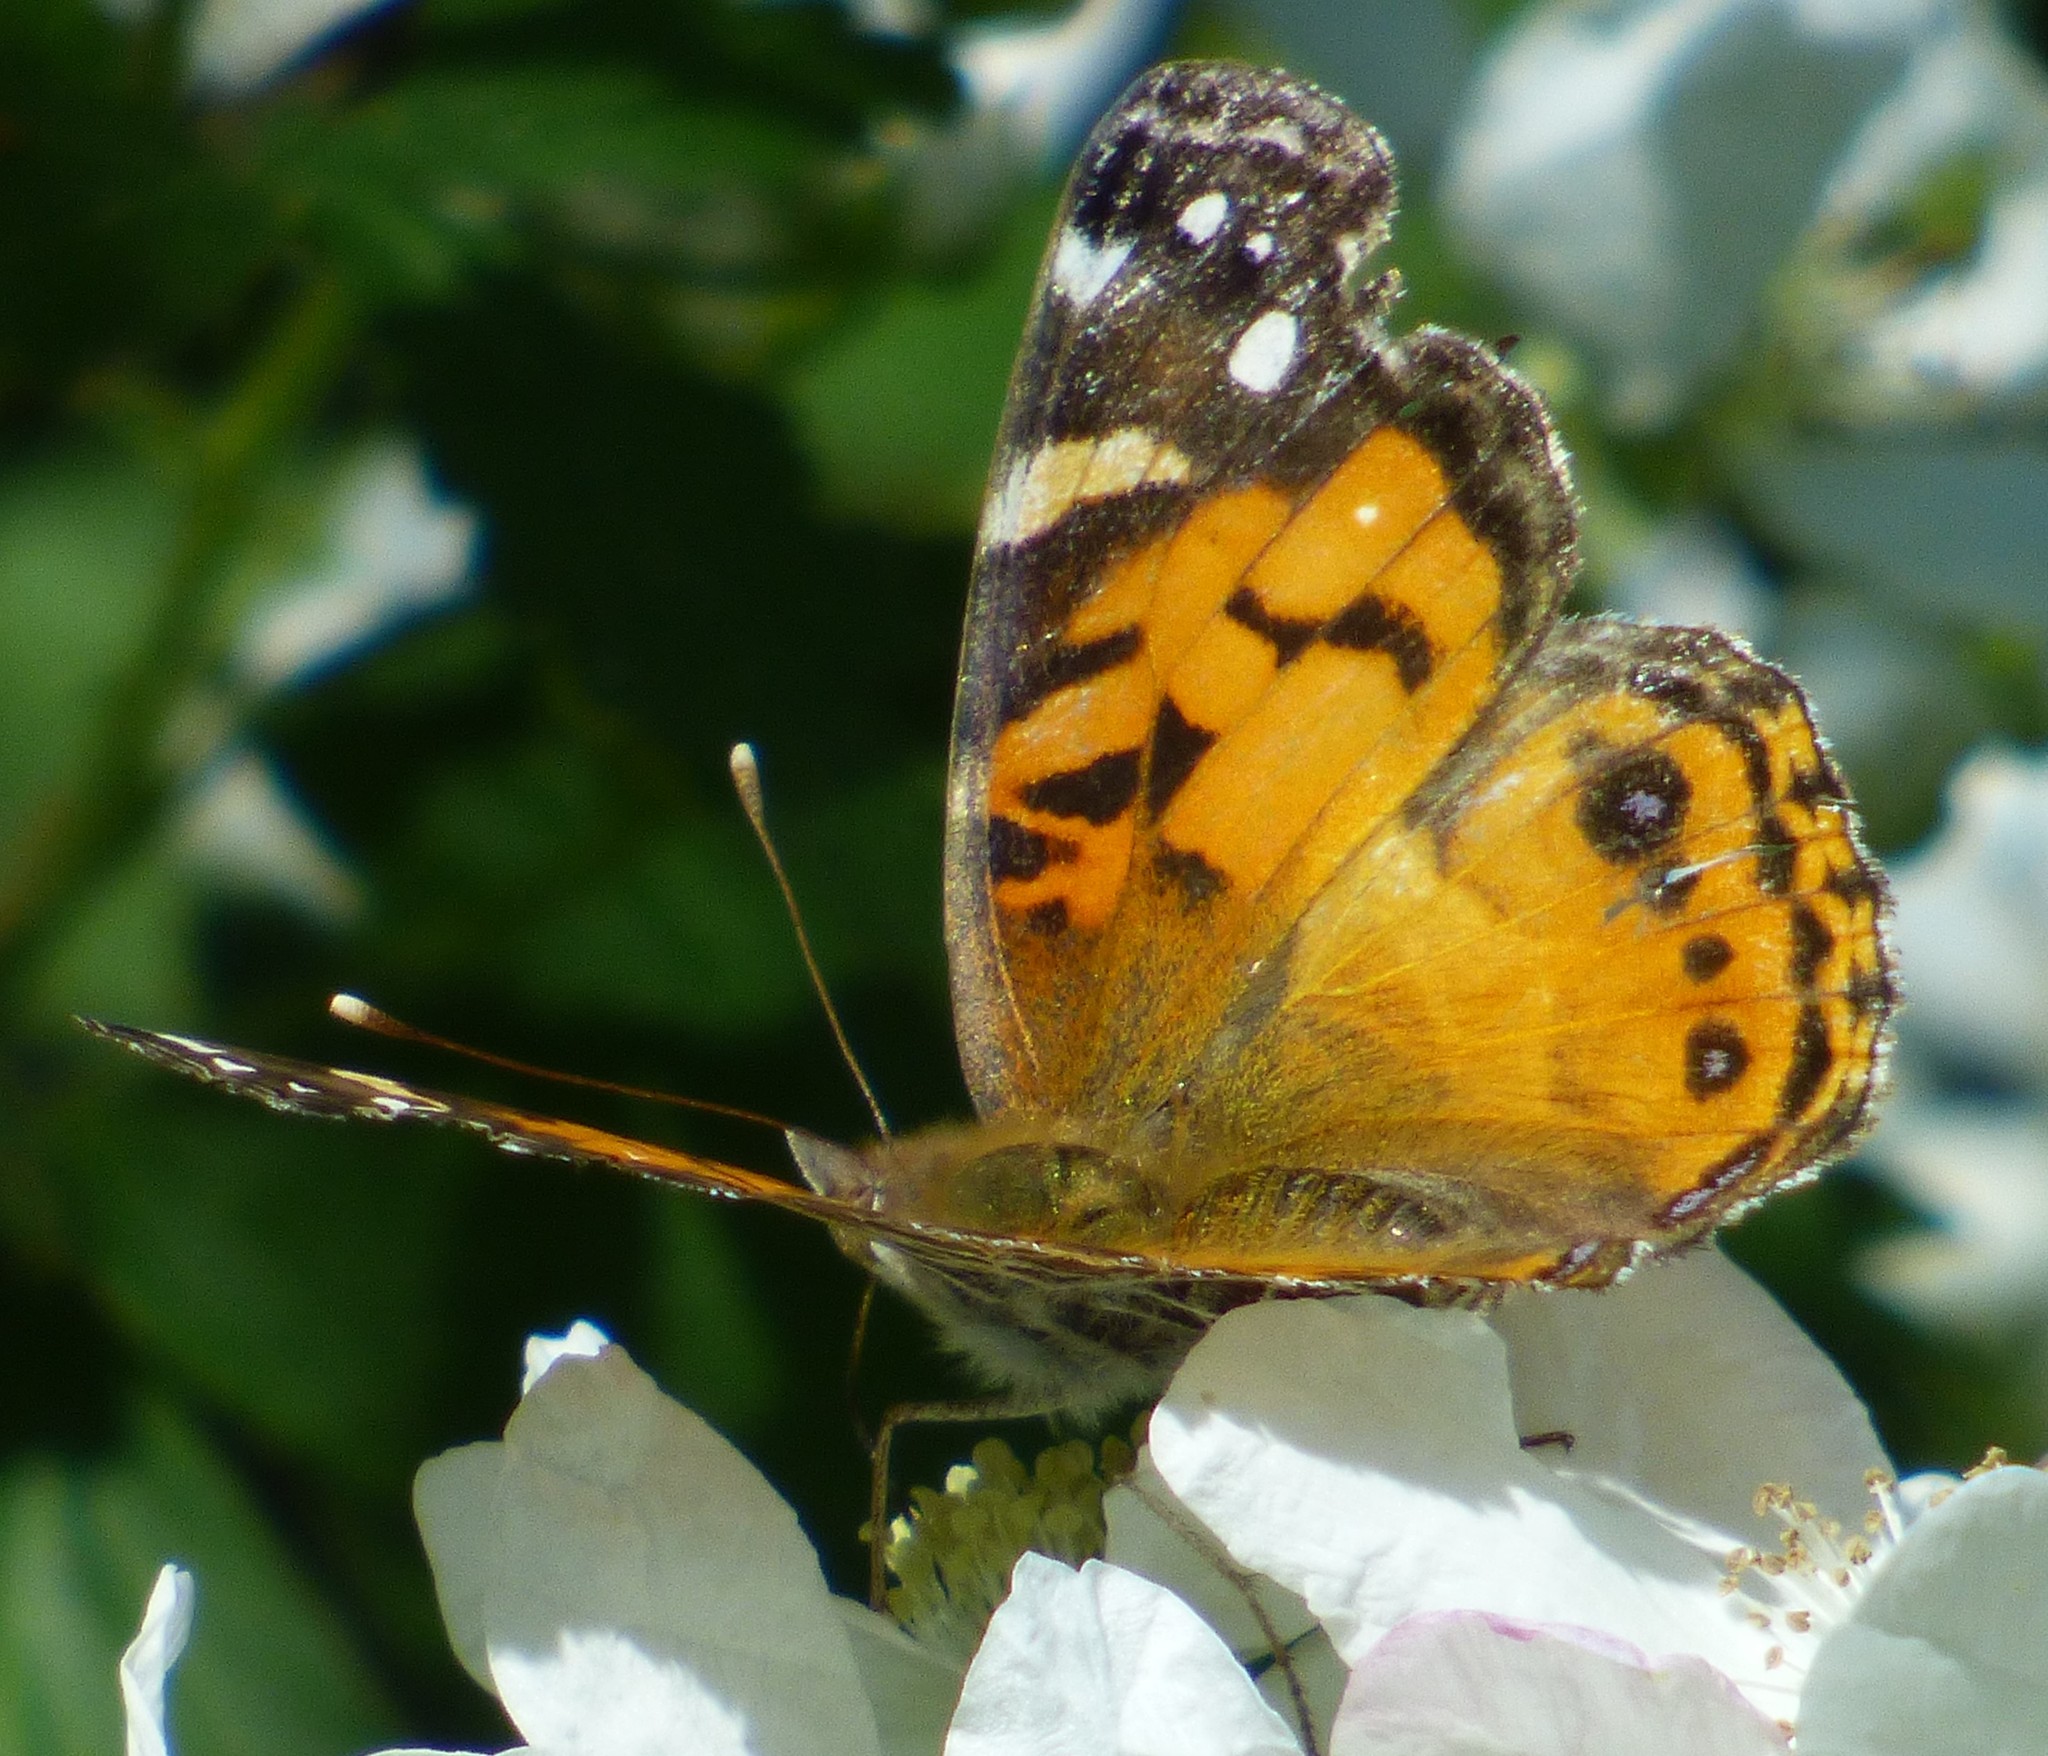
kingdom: Animalia
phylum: Arthropoda
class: Insecta
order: Lepidoptera
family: Nymphalidae
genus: Vanessa
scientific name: Vanessa virginiensis
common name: American lady
